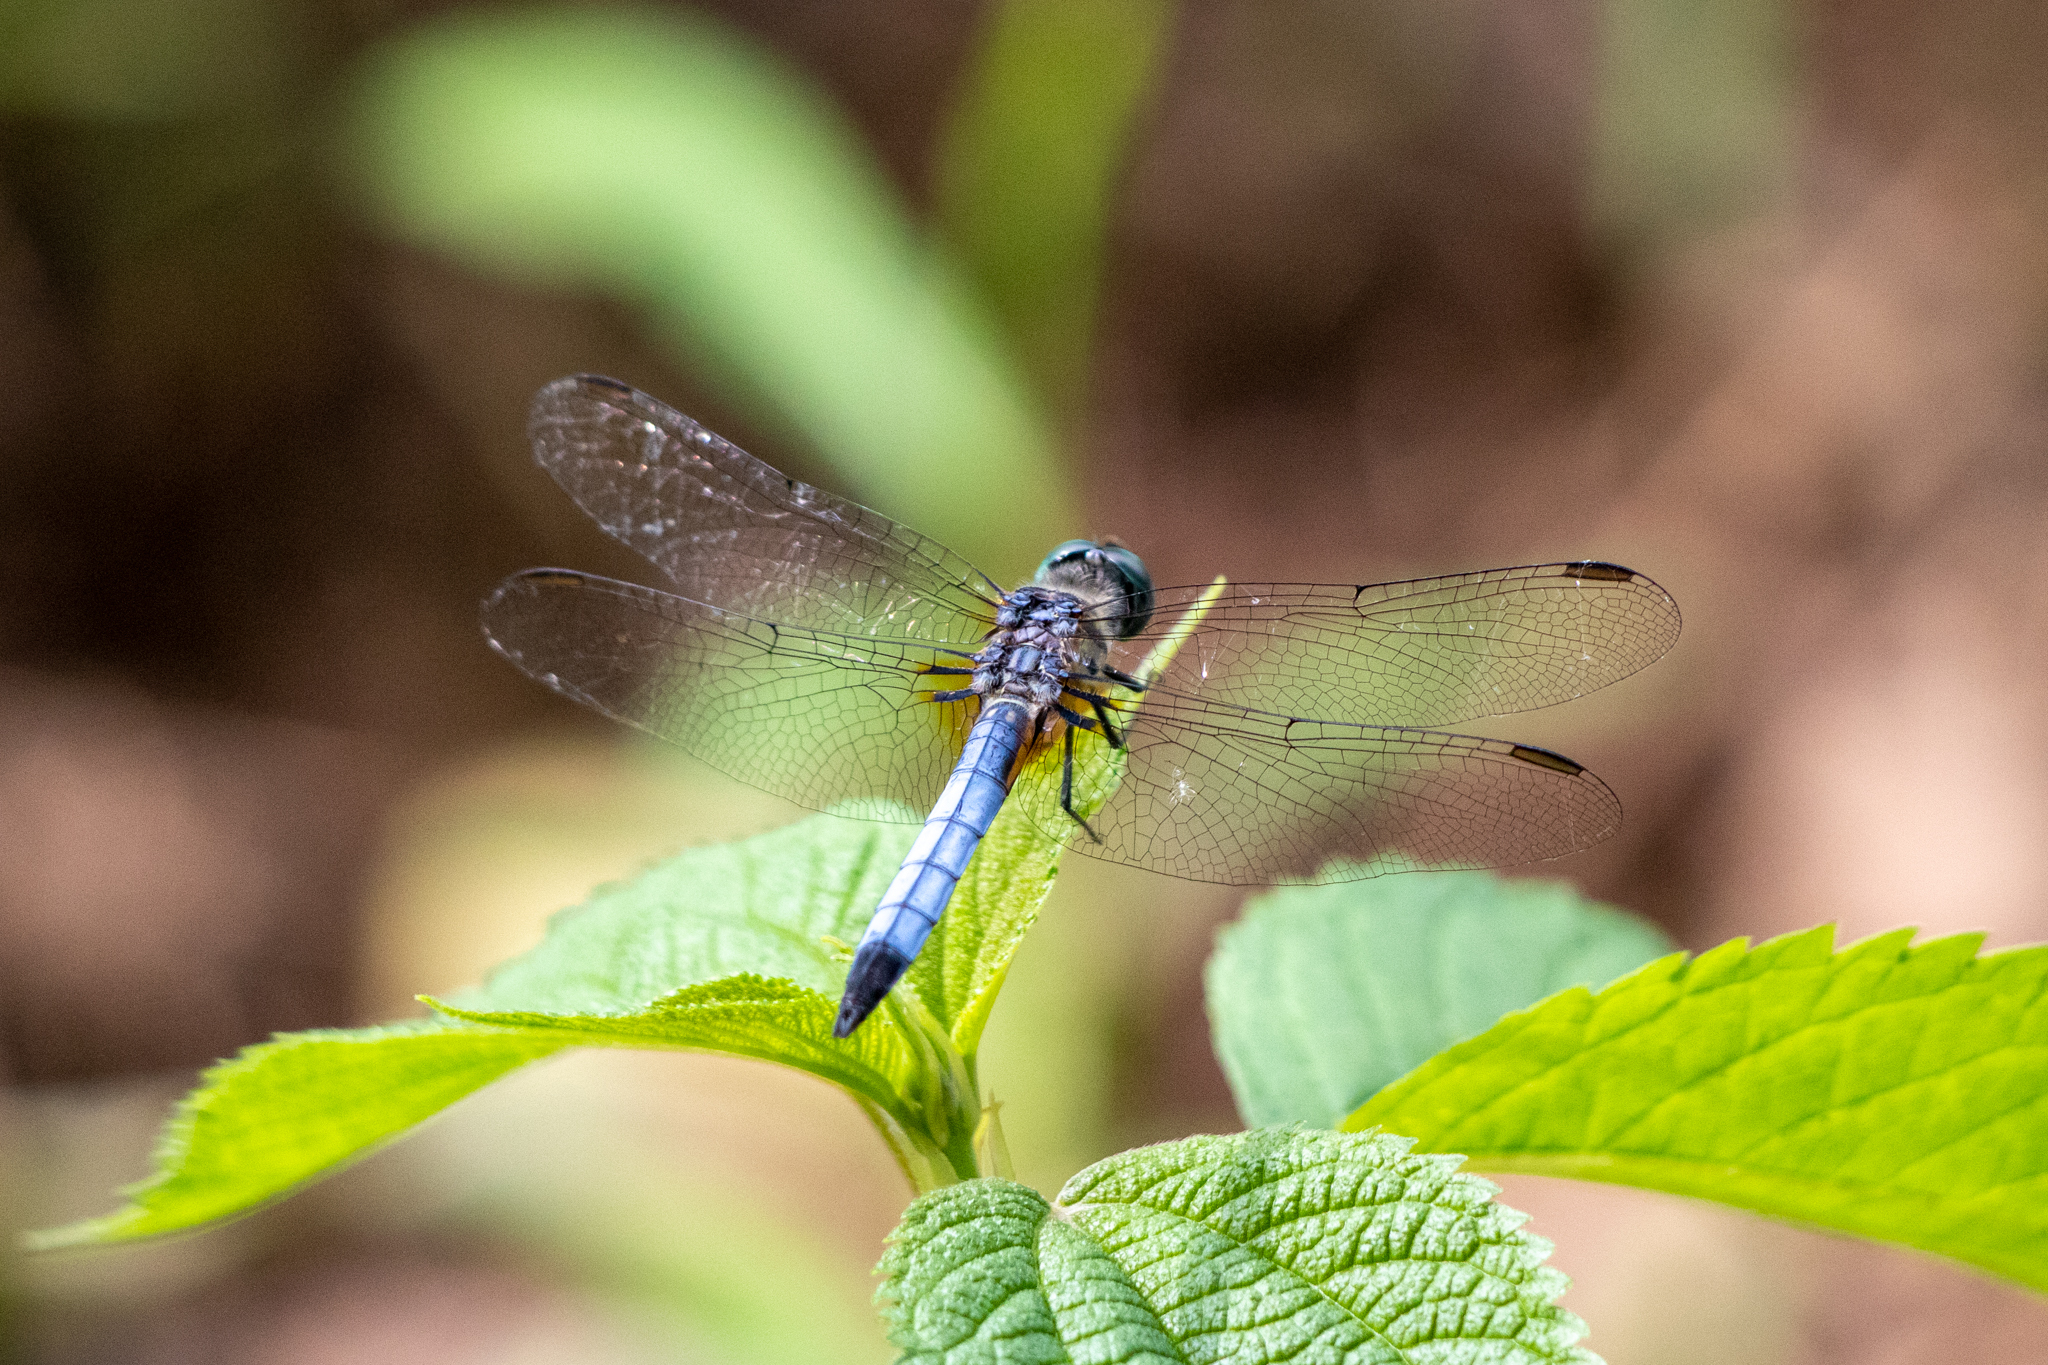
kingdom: Animalia
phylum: Arthropoda
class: Insecta
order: Odonata
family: Libellulidae
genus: Pachydiplax
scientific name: Pachydiplax longipennis
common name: Blue dasher
